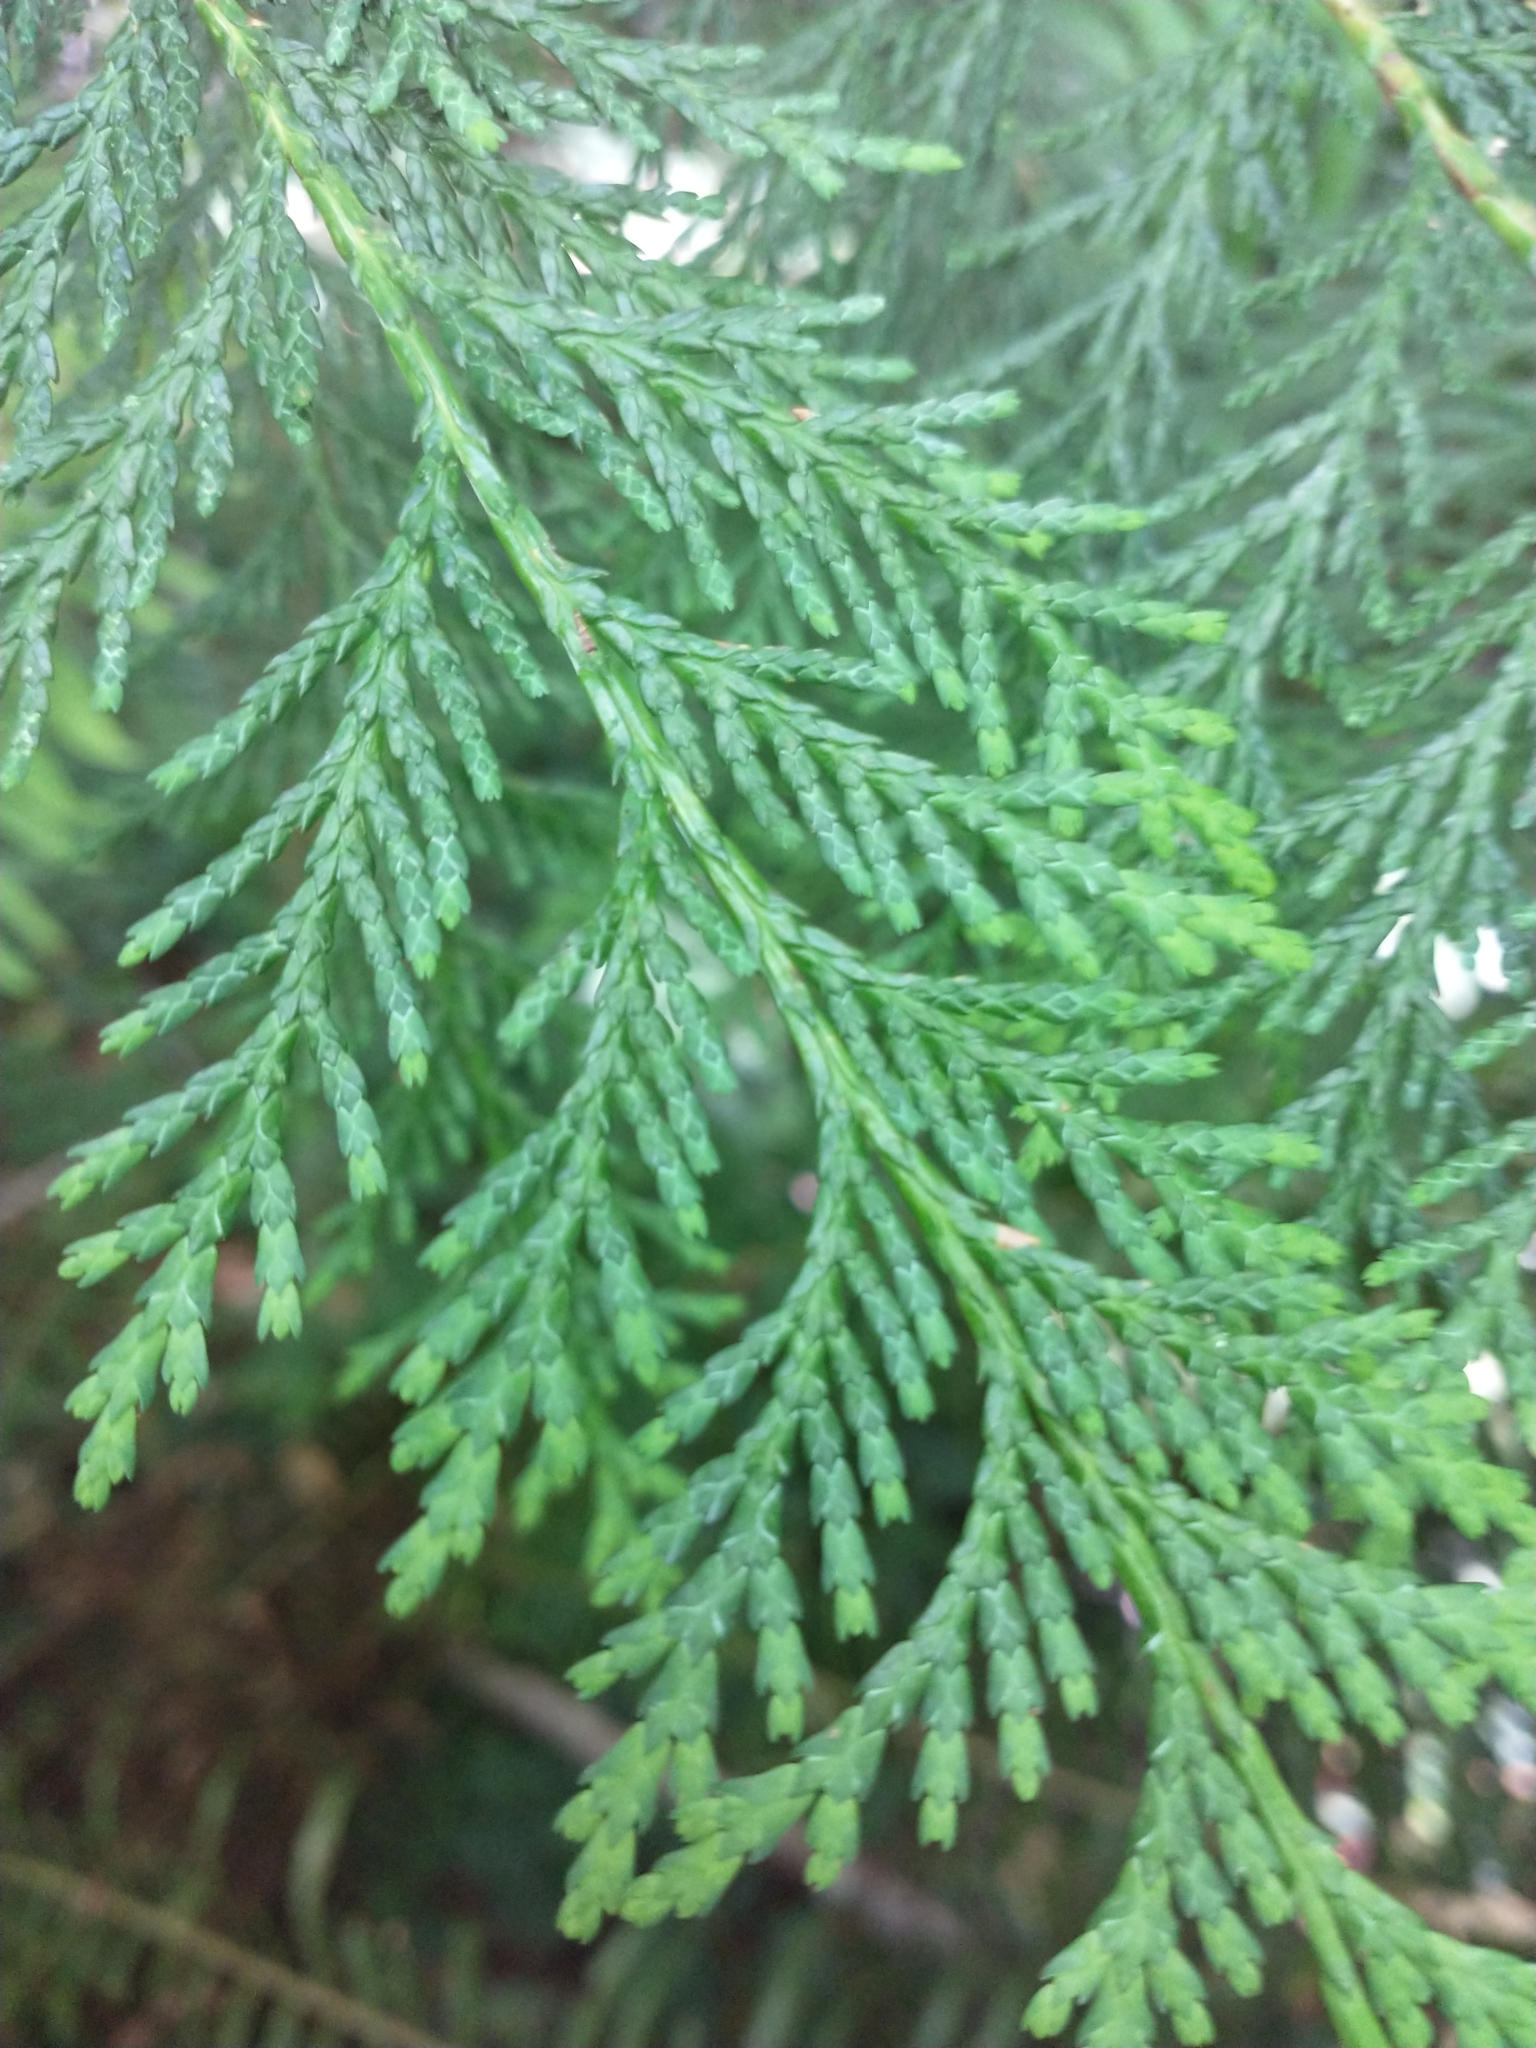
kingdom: Plantae
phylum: Tracheophyta
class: Pinopsida
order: Pinales
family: Cupressaceae
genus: Chamaecyparis
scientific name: Chamaecyparis lawsoniana
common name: Lawson's cypress
